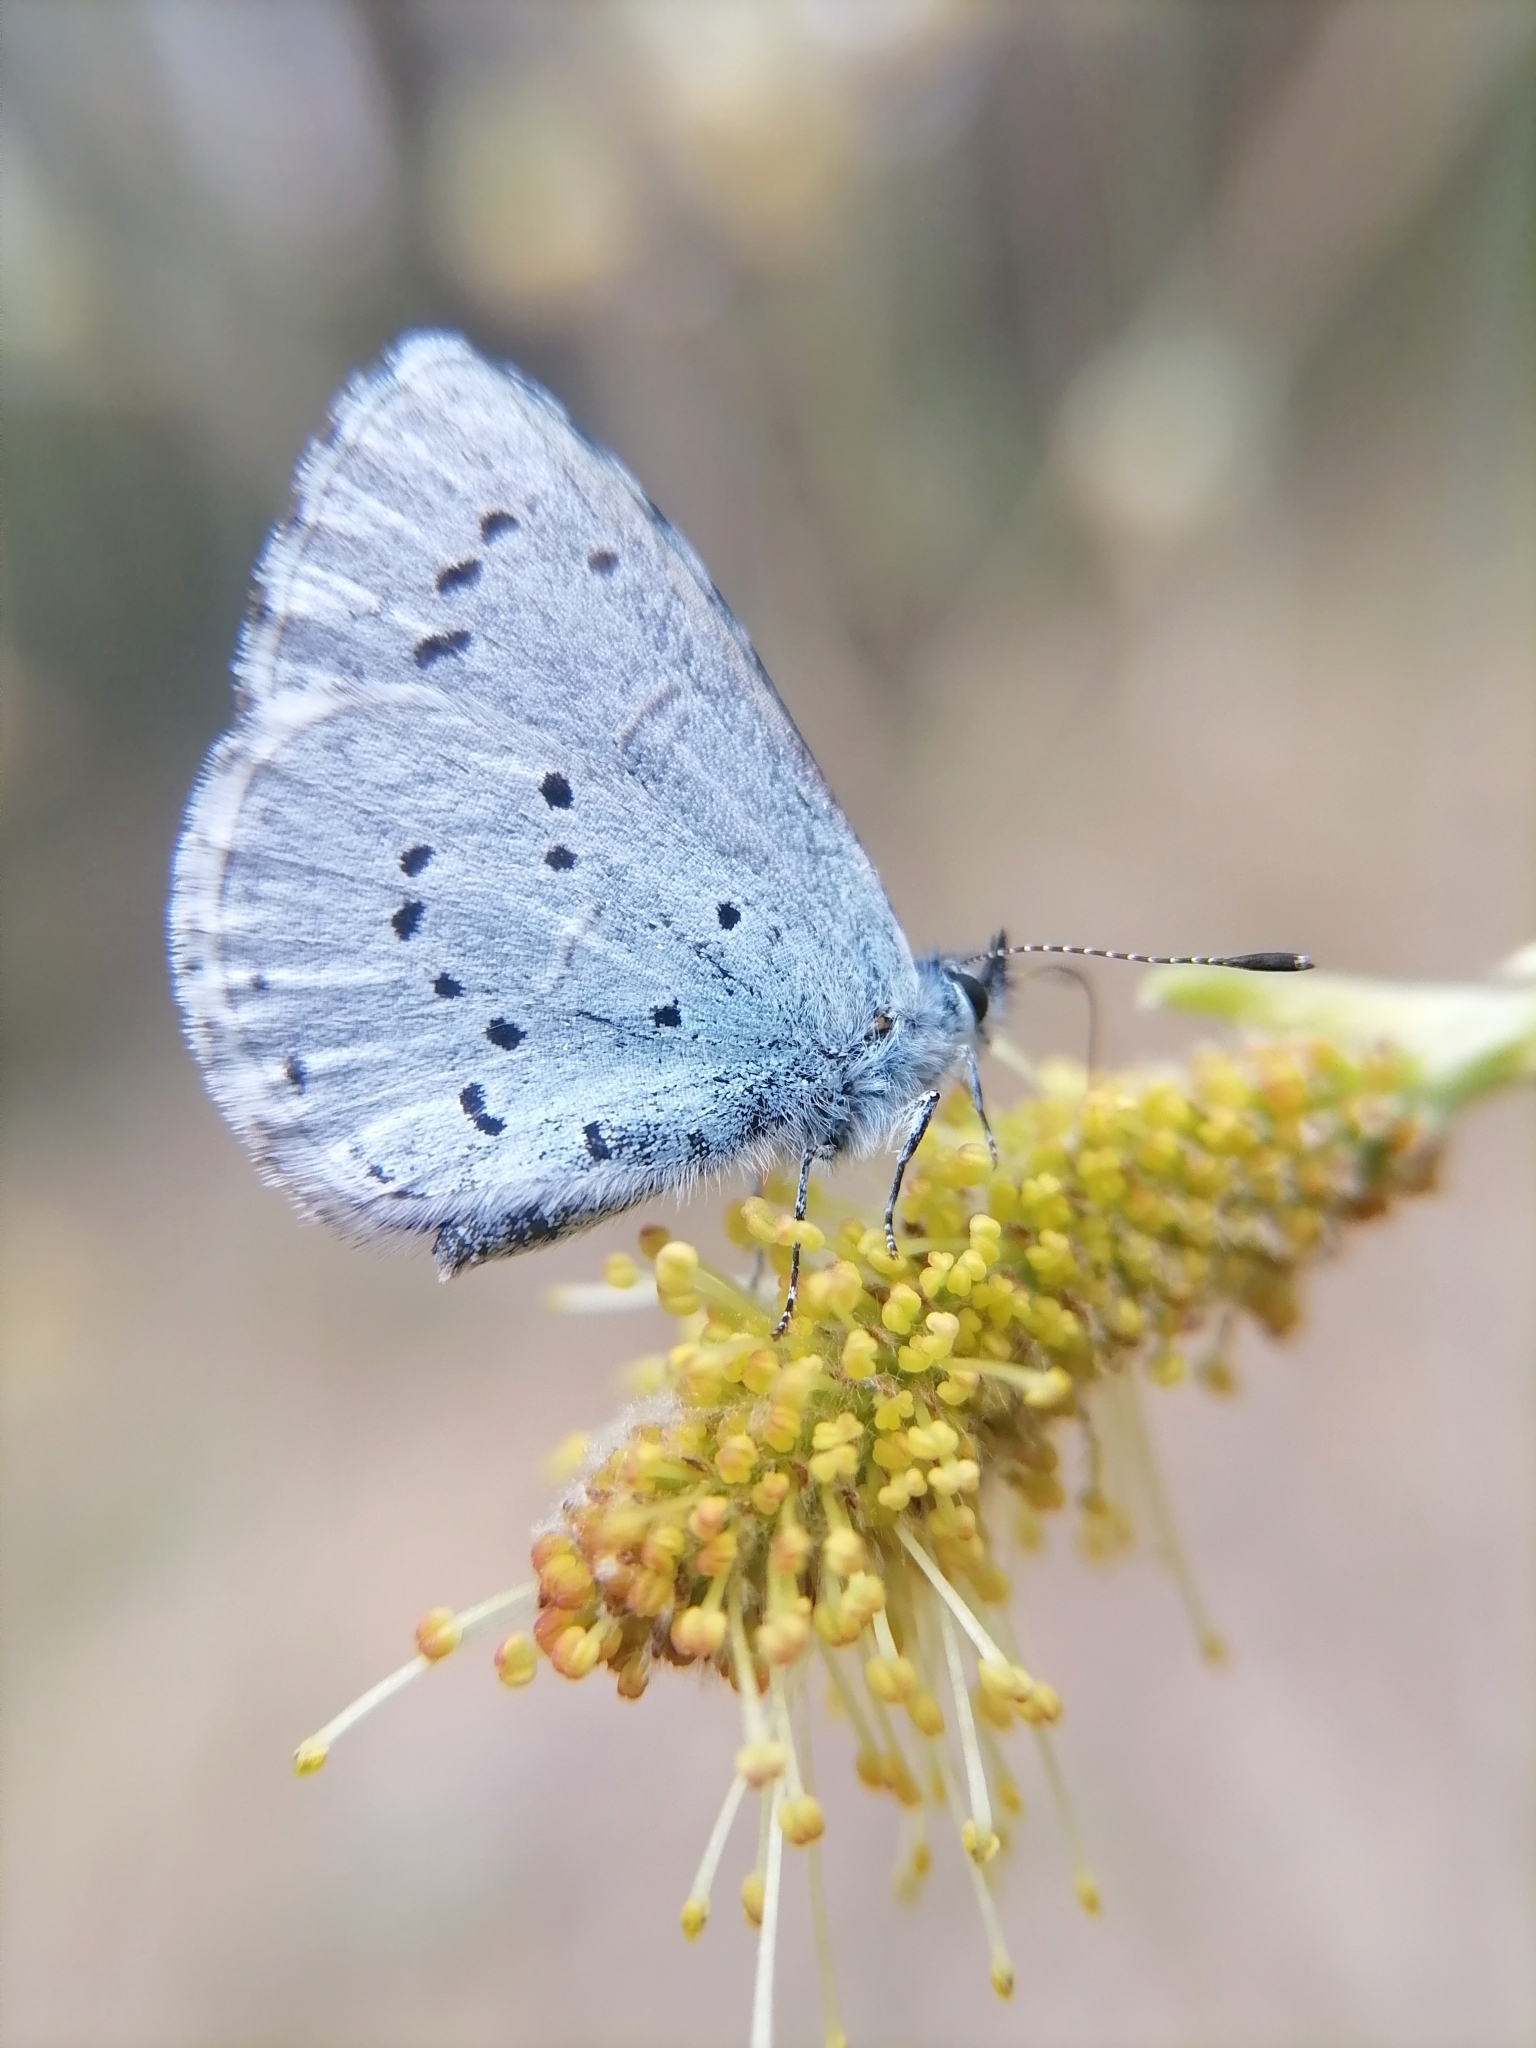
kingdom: Animalia
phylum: Arthropoda
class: Insecta
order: Lepidoptera
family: Lycaenidae
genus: Celastrina
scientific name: Celastrina argiolus
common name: Holly blue
